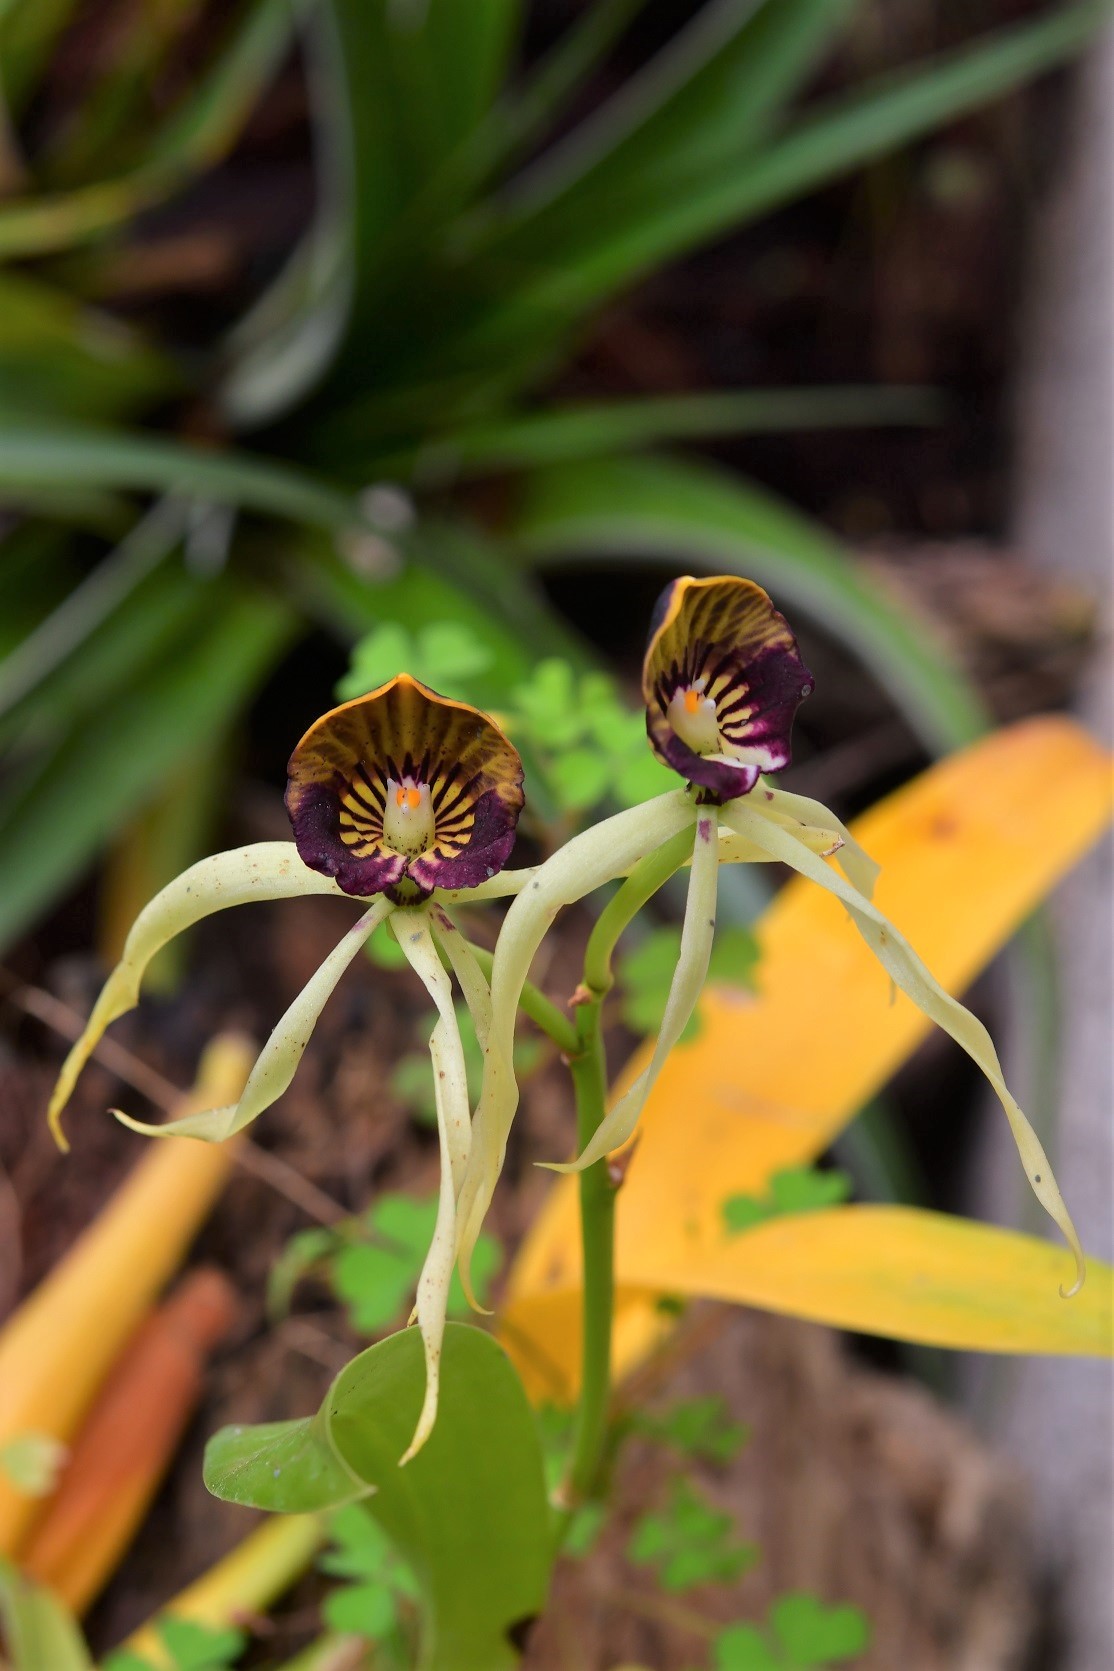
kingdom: Plantae
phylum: Tracheophyta
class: Liliopsida
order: Asparagales
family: Orchidaceae
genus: Prosthechea
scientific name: Prosthechea cochleata
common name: Clamshell orchid
